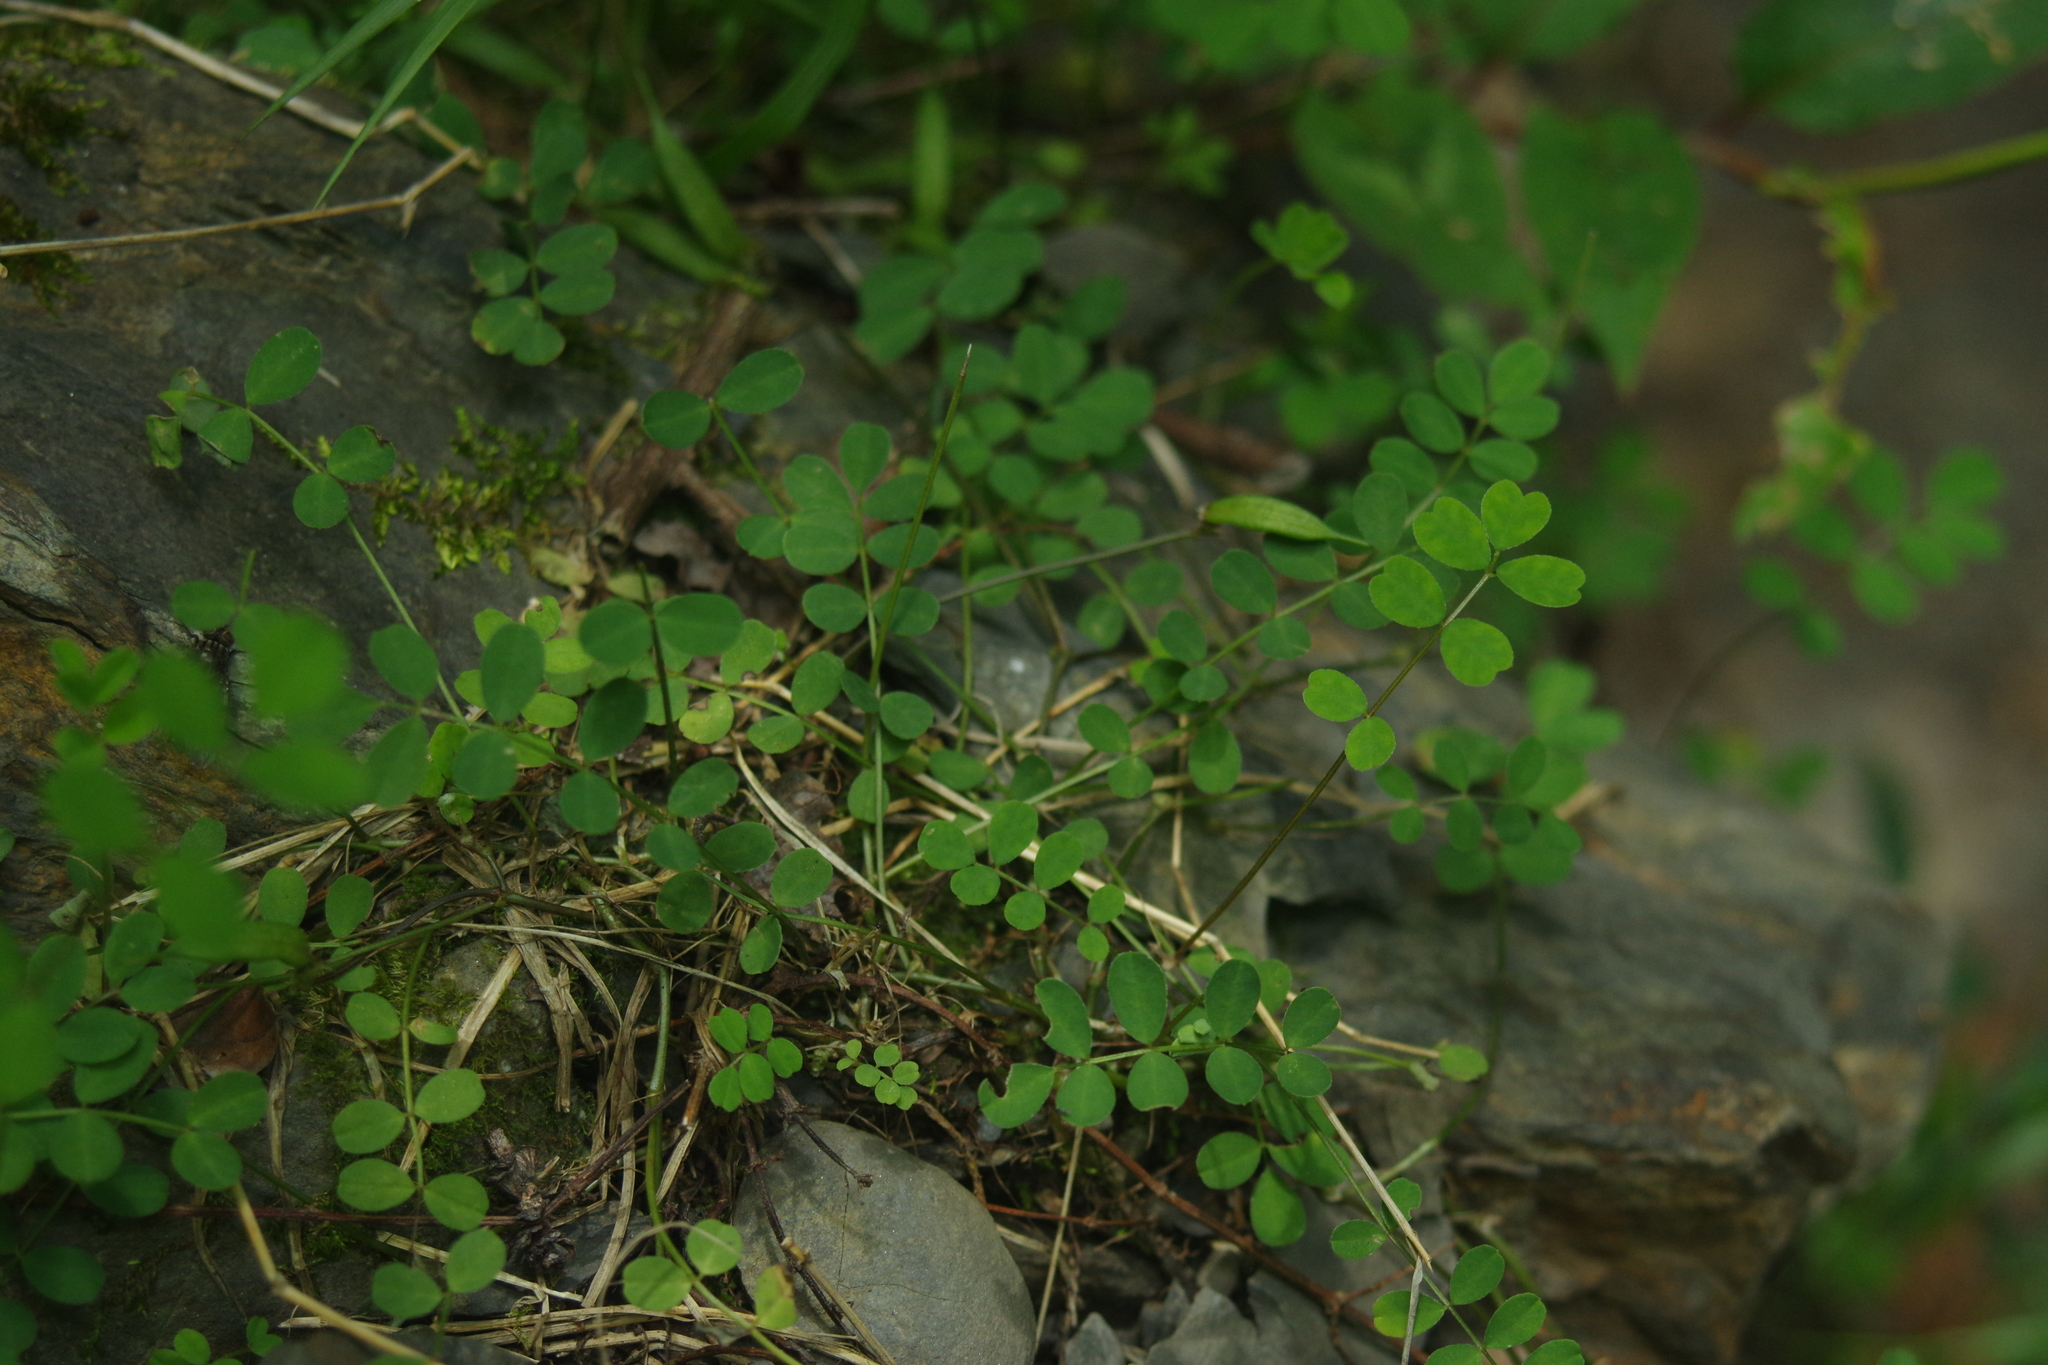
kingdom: Plantae
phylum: Tracheophyta
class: Magnoliopsida
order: Fabales
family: Fabaceae
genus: Astragalus
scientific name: Astragalus nokoensis
